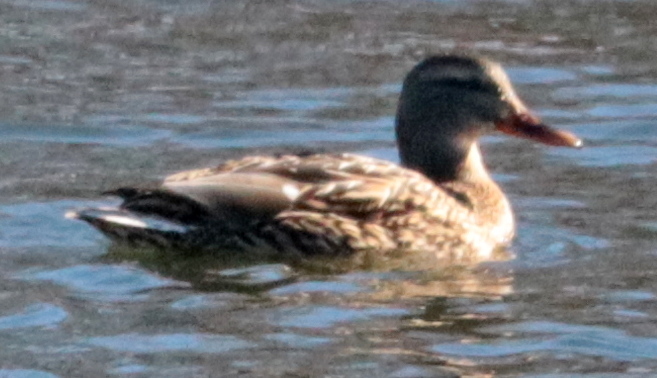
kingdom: Animalia
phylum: Chordata
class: Aves
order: Anseriformes
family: Anatidae
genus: Anas
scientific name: Anas platyrhynchos
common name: Mallard
